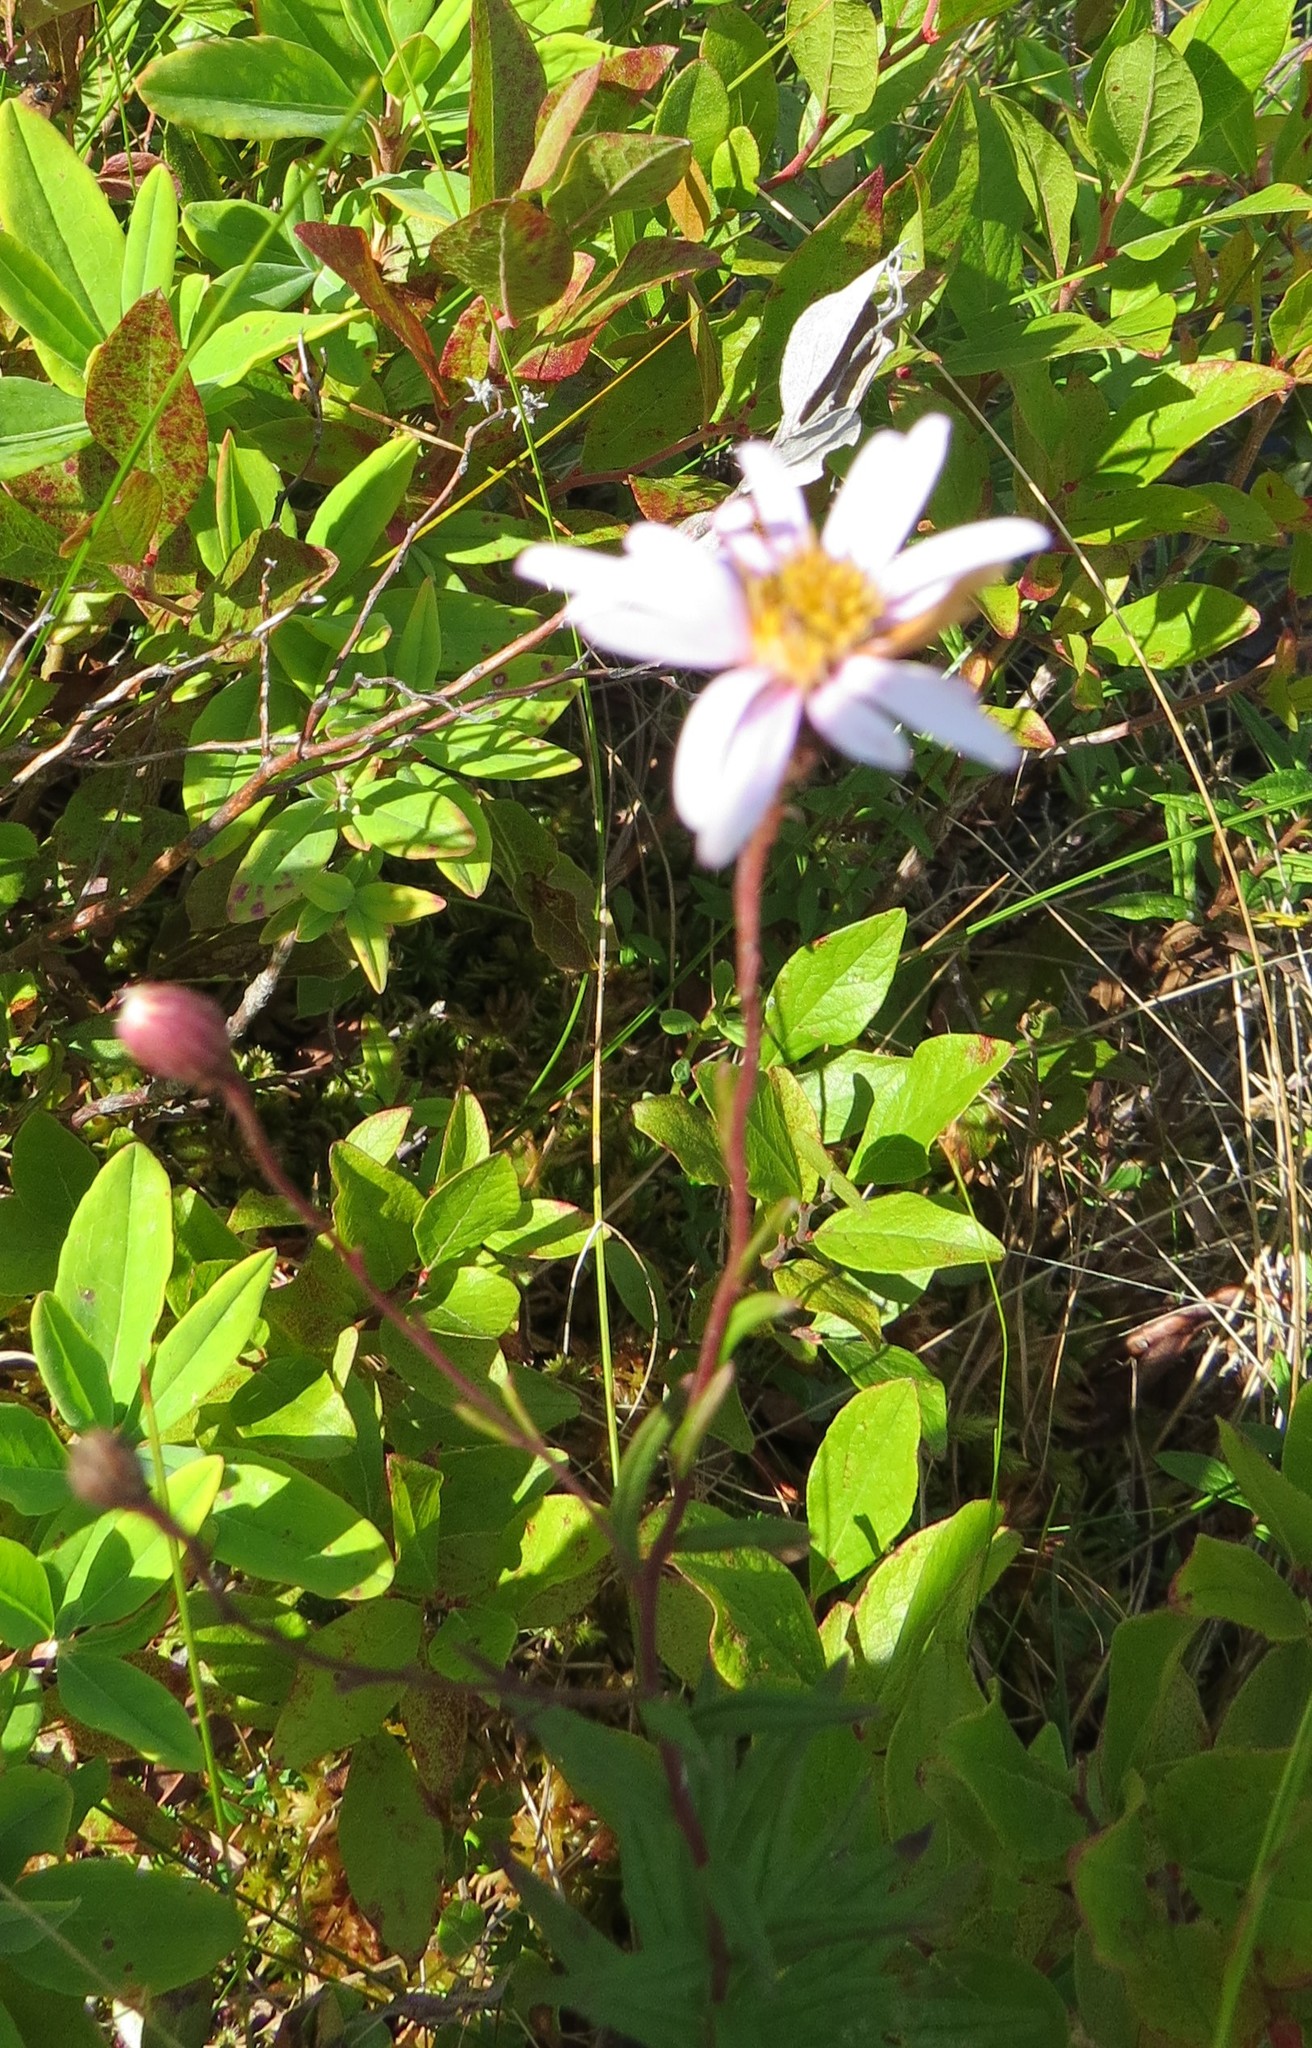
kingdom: Plantae
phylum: Tracheophyta
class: Magnoliopsida
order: Asterales
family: Asteraceae
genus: Oclemena
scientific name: Oclemena nemoralis
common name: Bog aster
